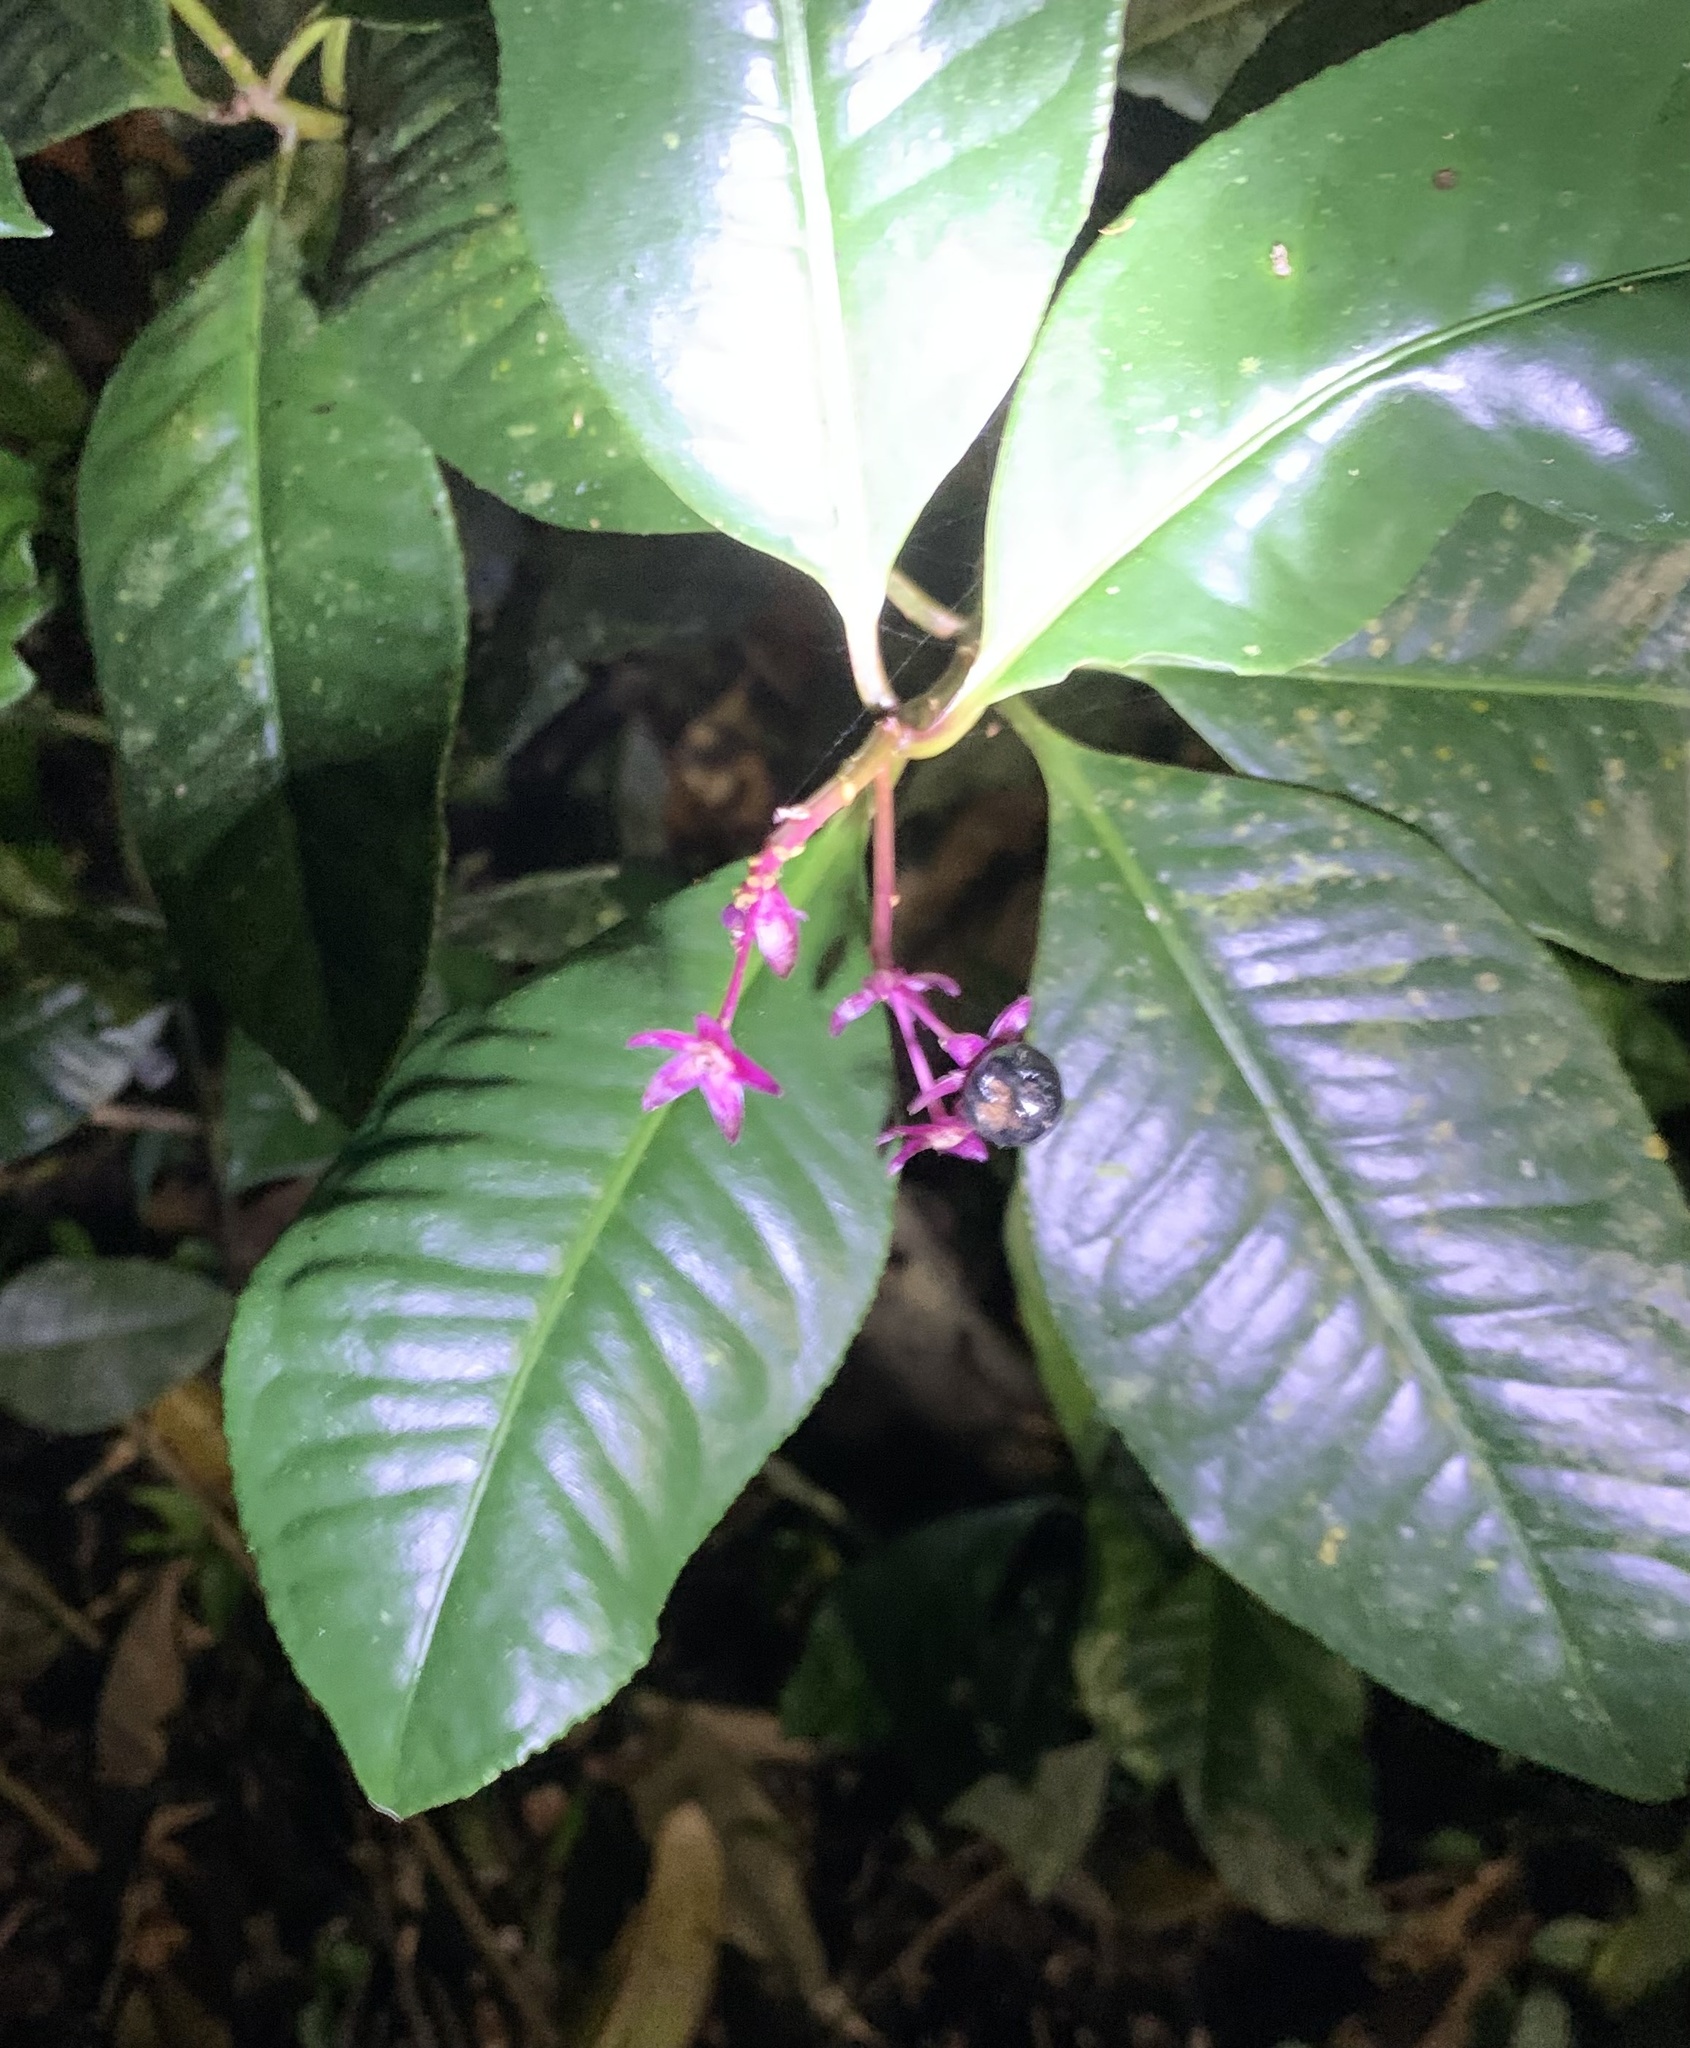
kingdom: Plantae
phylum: Tracheophyta
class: Magnoliopsida
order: Ericales
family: Primulaceae
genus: Ardisia
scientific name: Ardisia opegrapha
